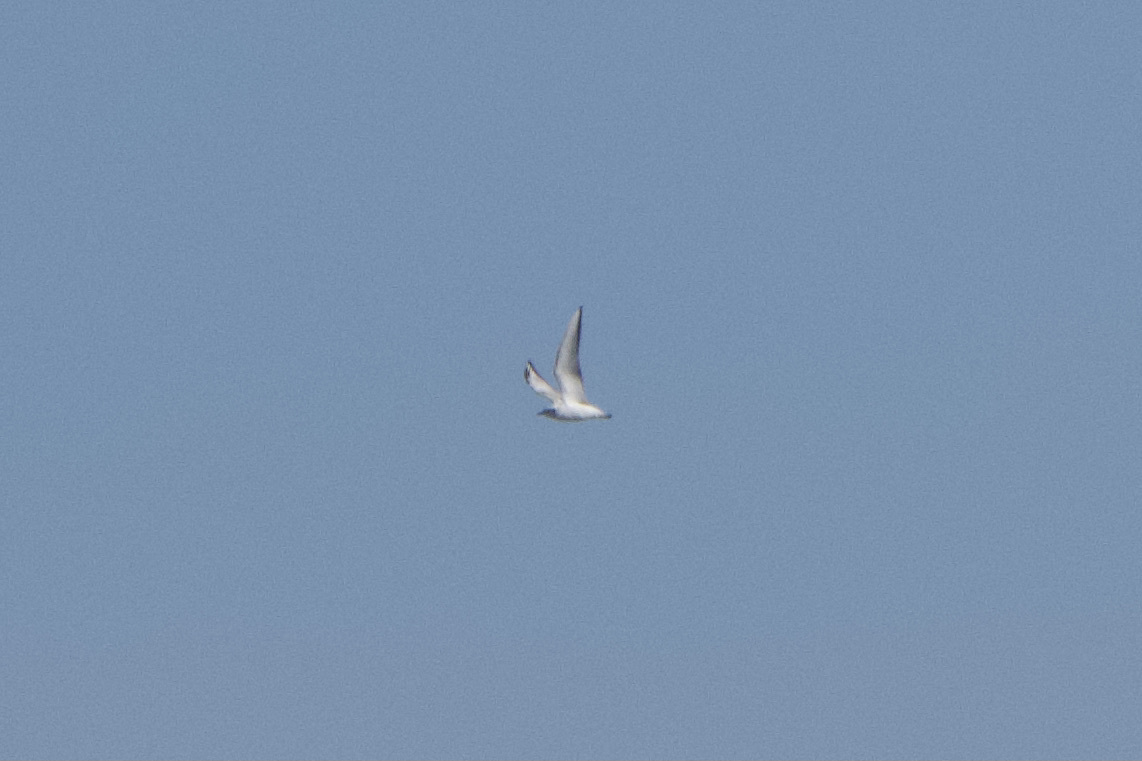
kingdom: Animalia
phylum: Chordata
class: Aves
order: Charadriiformes
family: Laridae
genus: Chroicocephalus
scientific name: Chroicocephalus philadelphia
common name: Bonaparte's gull
